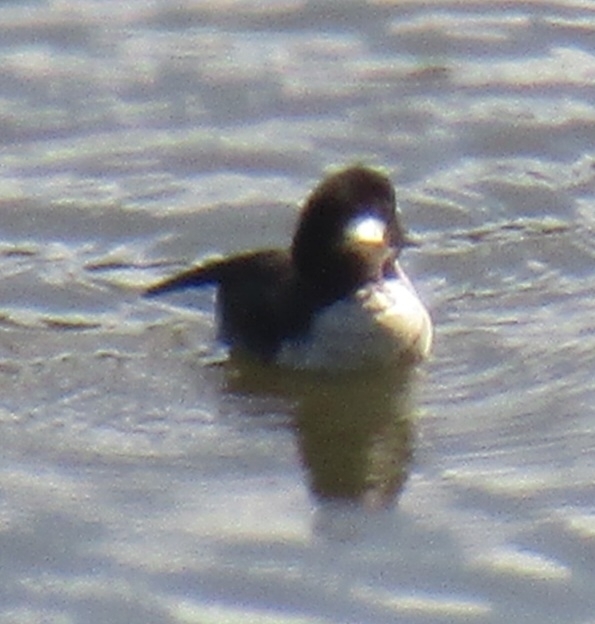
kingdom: Animalia
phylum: Chordata
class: Aves
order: Anseriformes
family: Anatidae
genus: Bucephala
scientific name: Bucephala albeola
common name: Bufflehead
